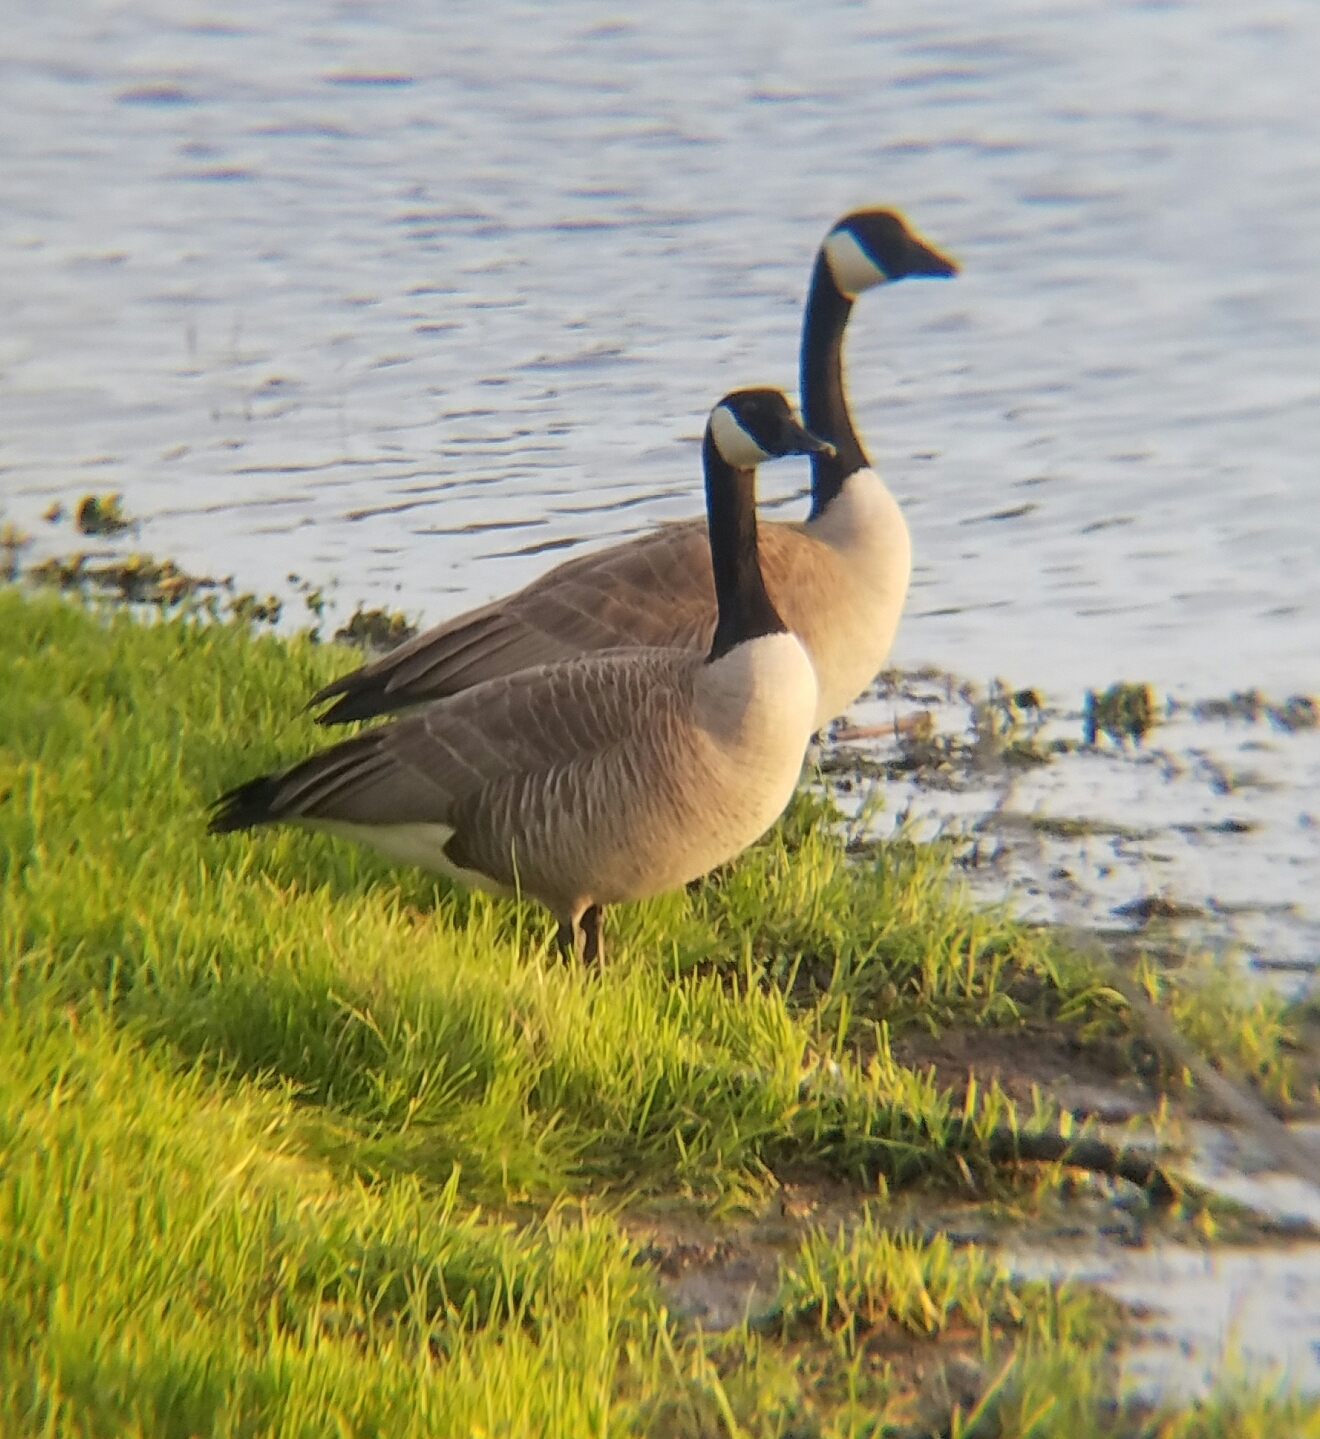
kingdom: Animalia
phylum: Chordata
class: Aves
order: Anseriformes
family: Anatidae
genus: Branta
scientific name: Branta canadensis
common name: Canada goose
